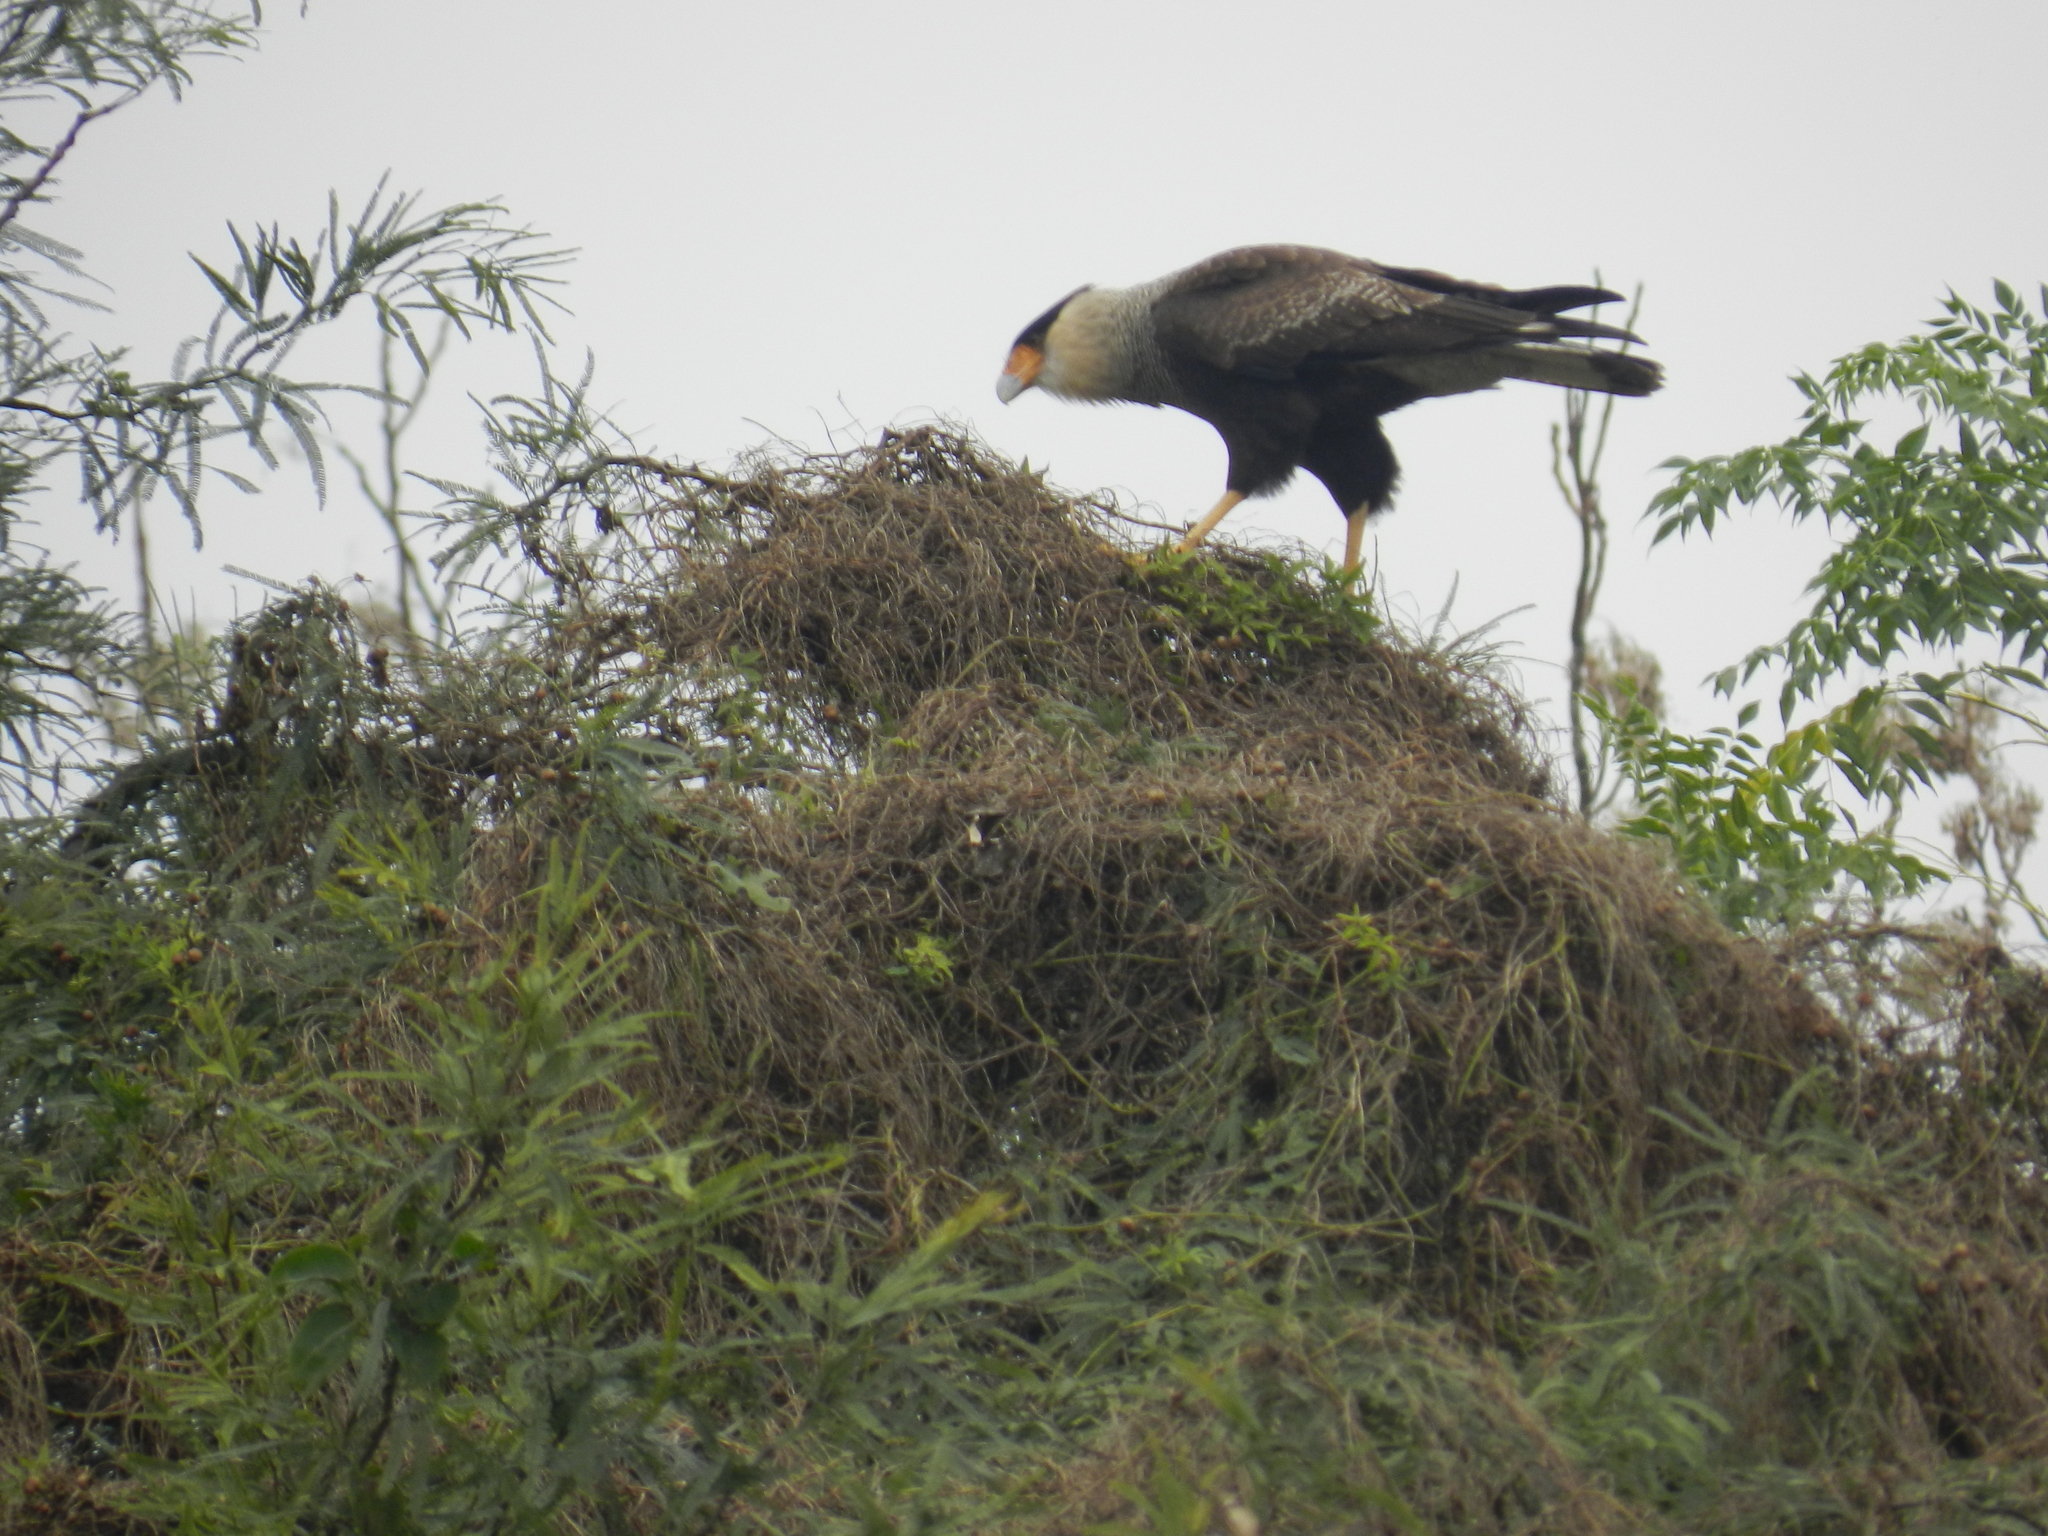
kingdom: Animalia
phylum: Chordata
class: Aves
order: Falconiformes
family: Falconidae
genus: Caracara
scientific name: Caracara plancus
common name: Southern caracara
